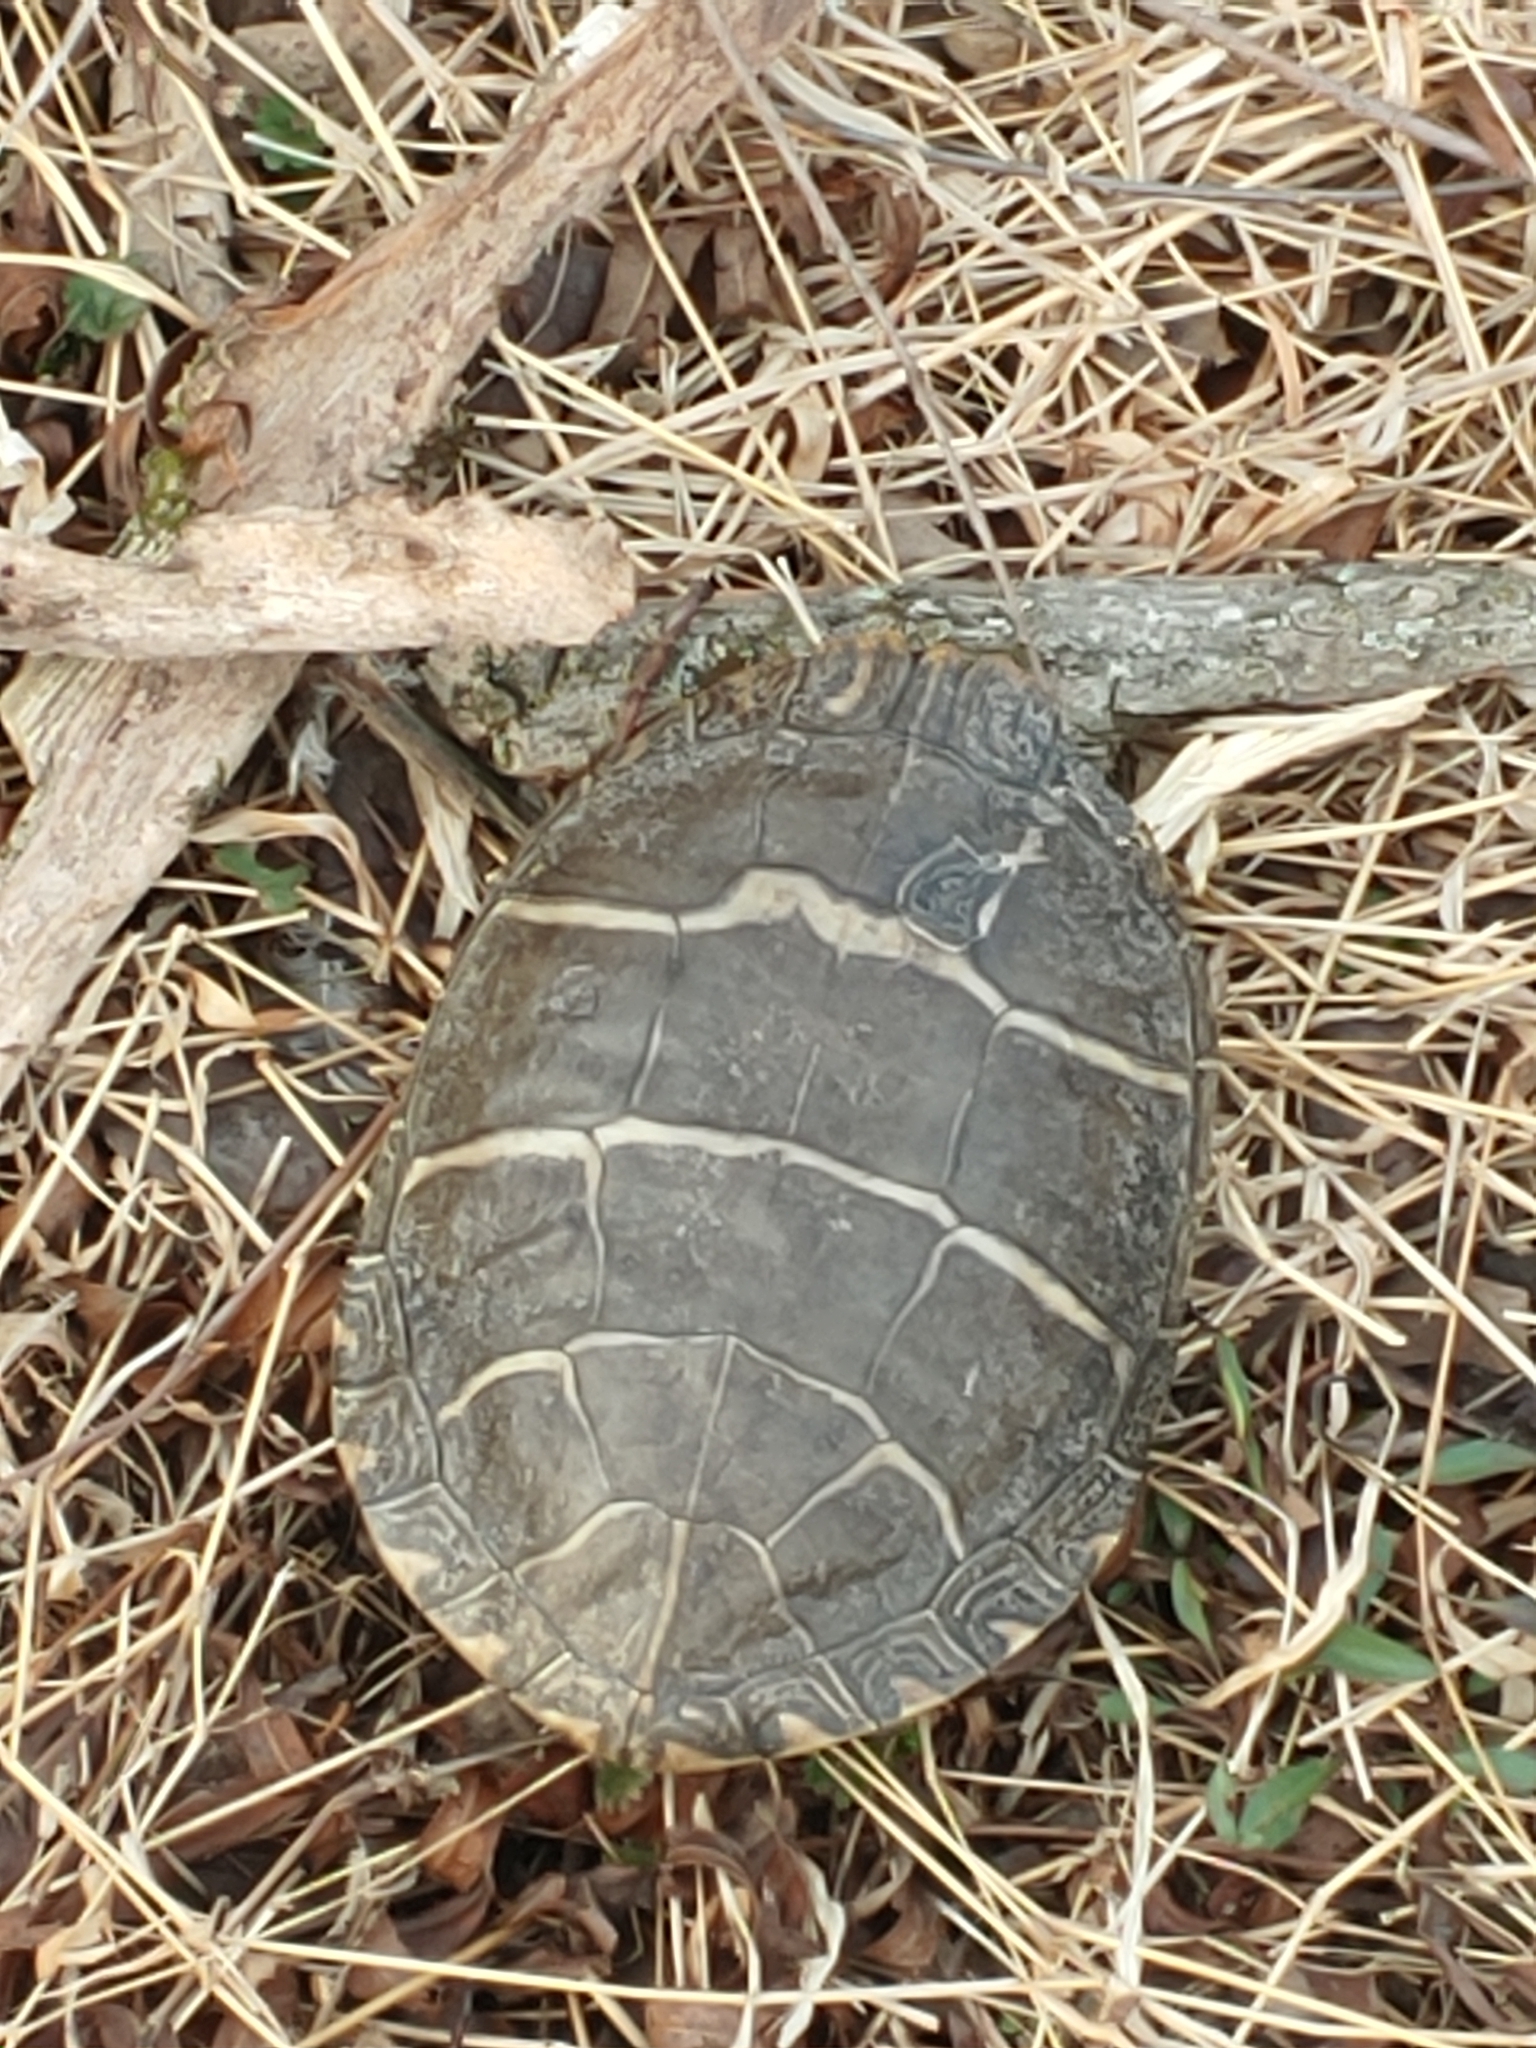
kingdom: Animalia
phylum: Chordata
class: Testudines
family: Emydidae
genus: Chrysemys
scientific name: Chrysemys picta
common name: Painted turtle
